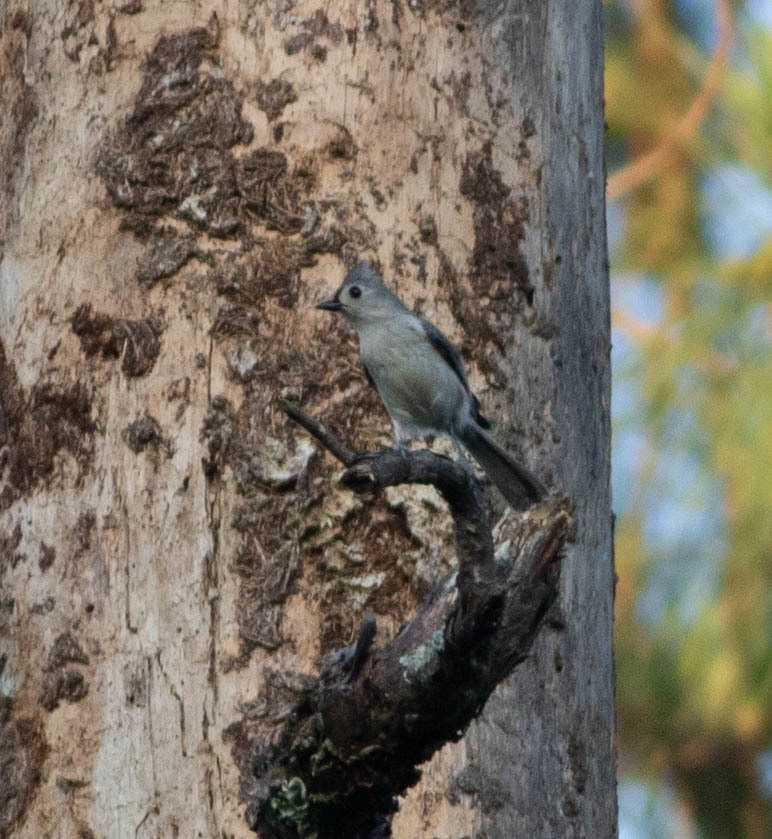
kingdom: Animalia
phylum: Chordata
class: Aves
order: Passeriformes
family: Paridae
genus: Baeolophus
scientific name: Baeolophus bicolor
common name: Tufted titmouse
